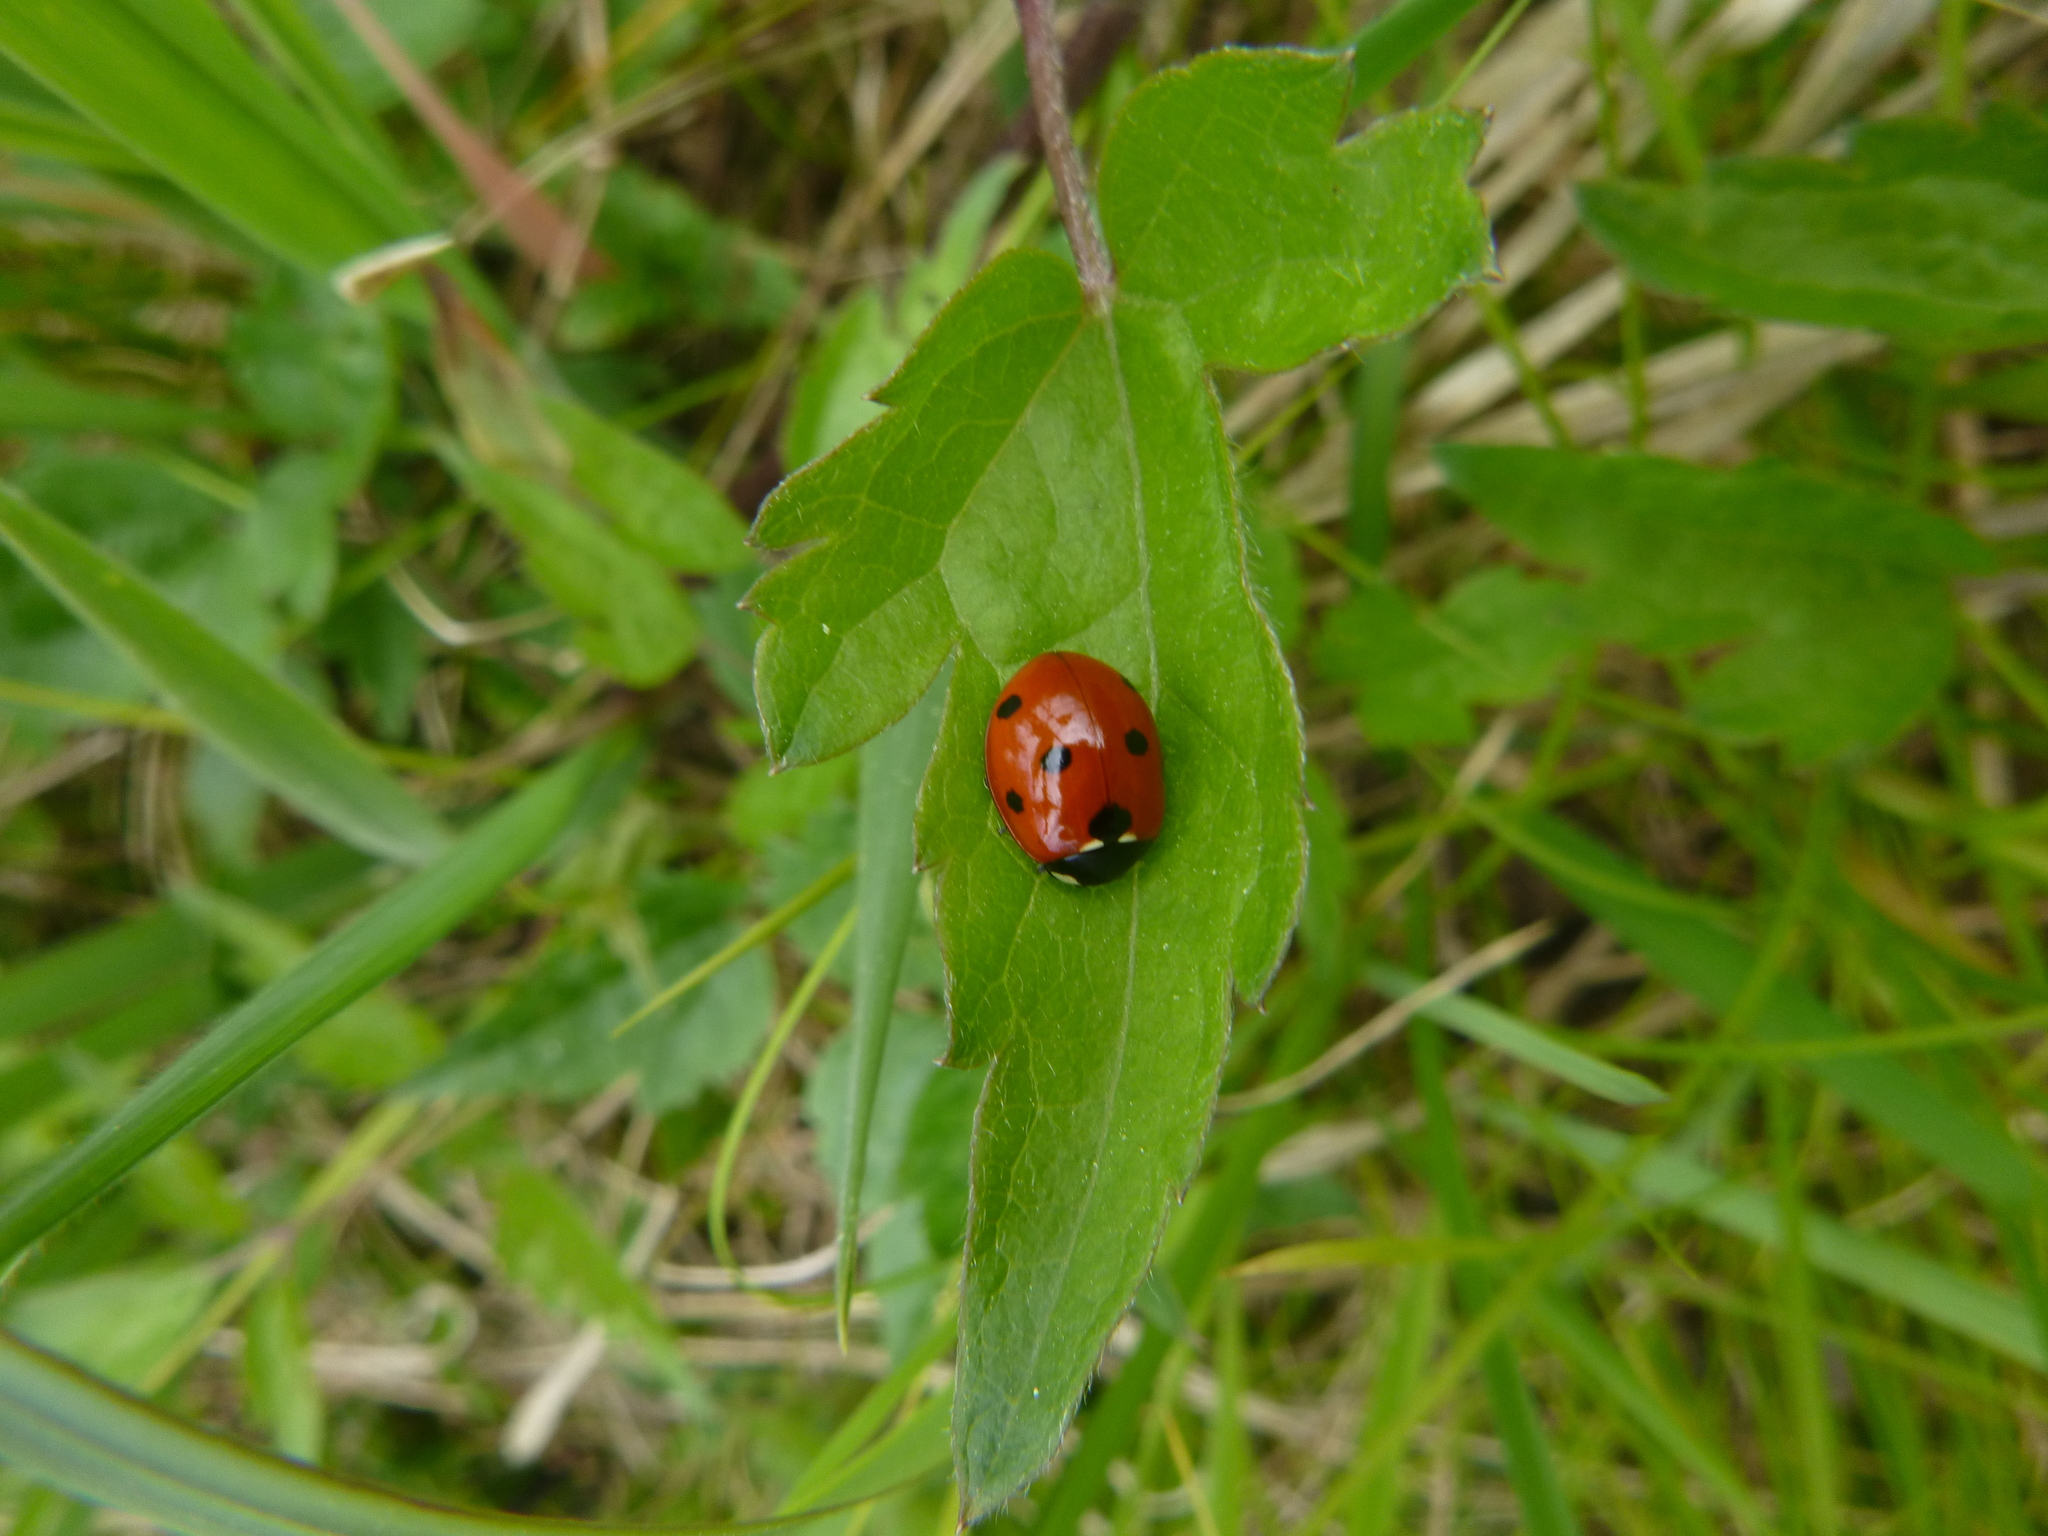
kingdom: Animalia
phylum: Arthropoda
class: Insecta
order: Coleoptera
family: Coccinellidae
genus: Coccinella
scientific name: Coccinella septempunctata
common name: Sevenspotted lady beetle
